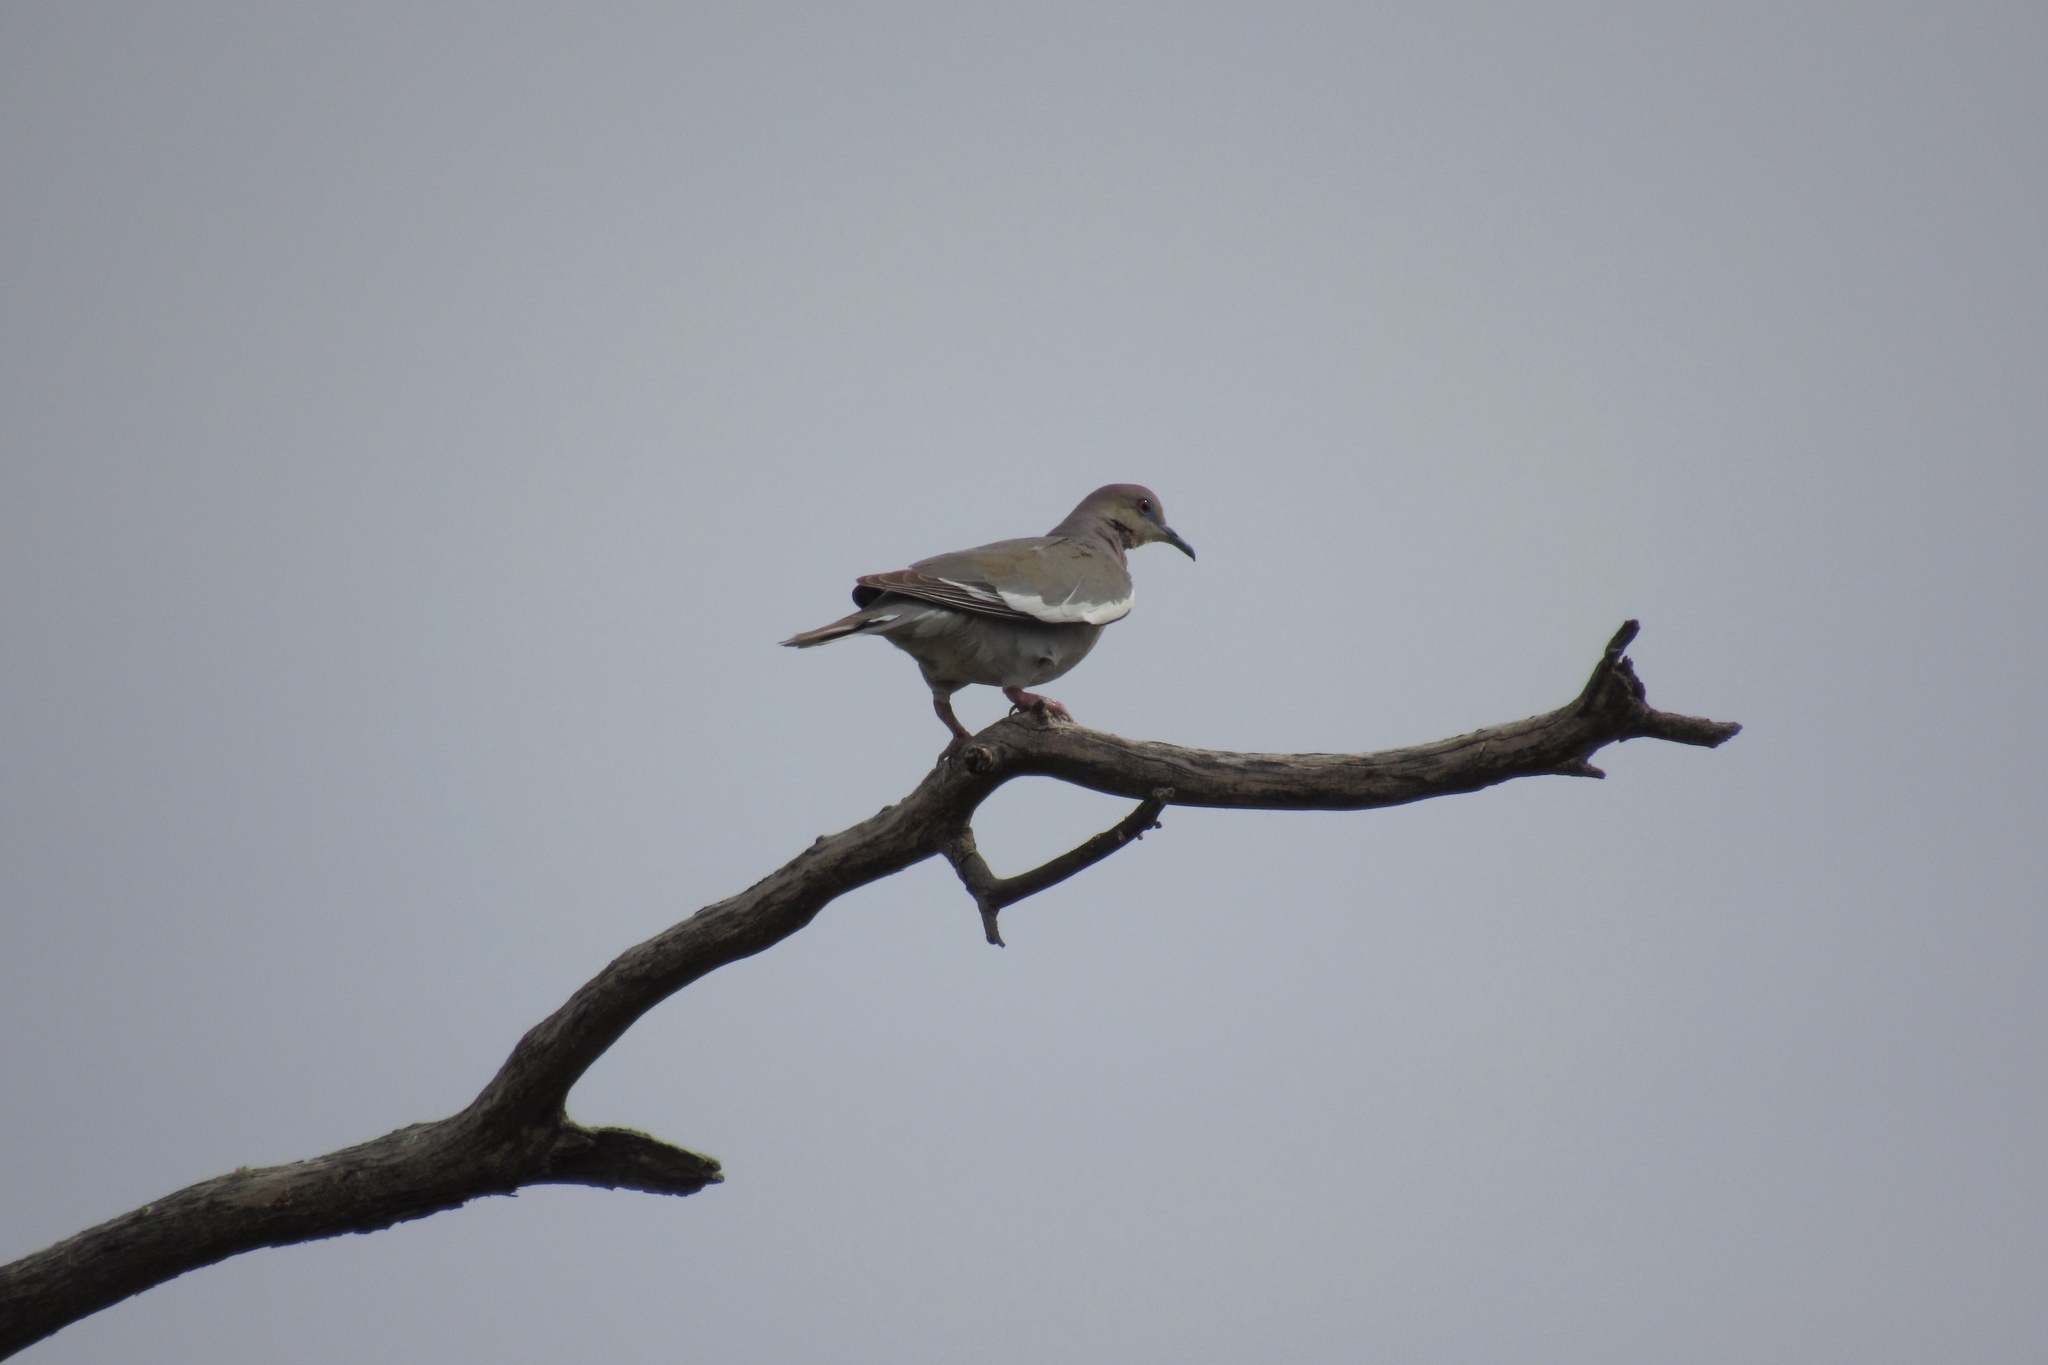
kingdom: Animalia
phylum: Chordata
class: Aves
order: Columbiformes
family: Columbidae
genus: Zenaida
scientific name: Zenaida asiatica
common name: White-winged dove
